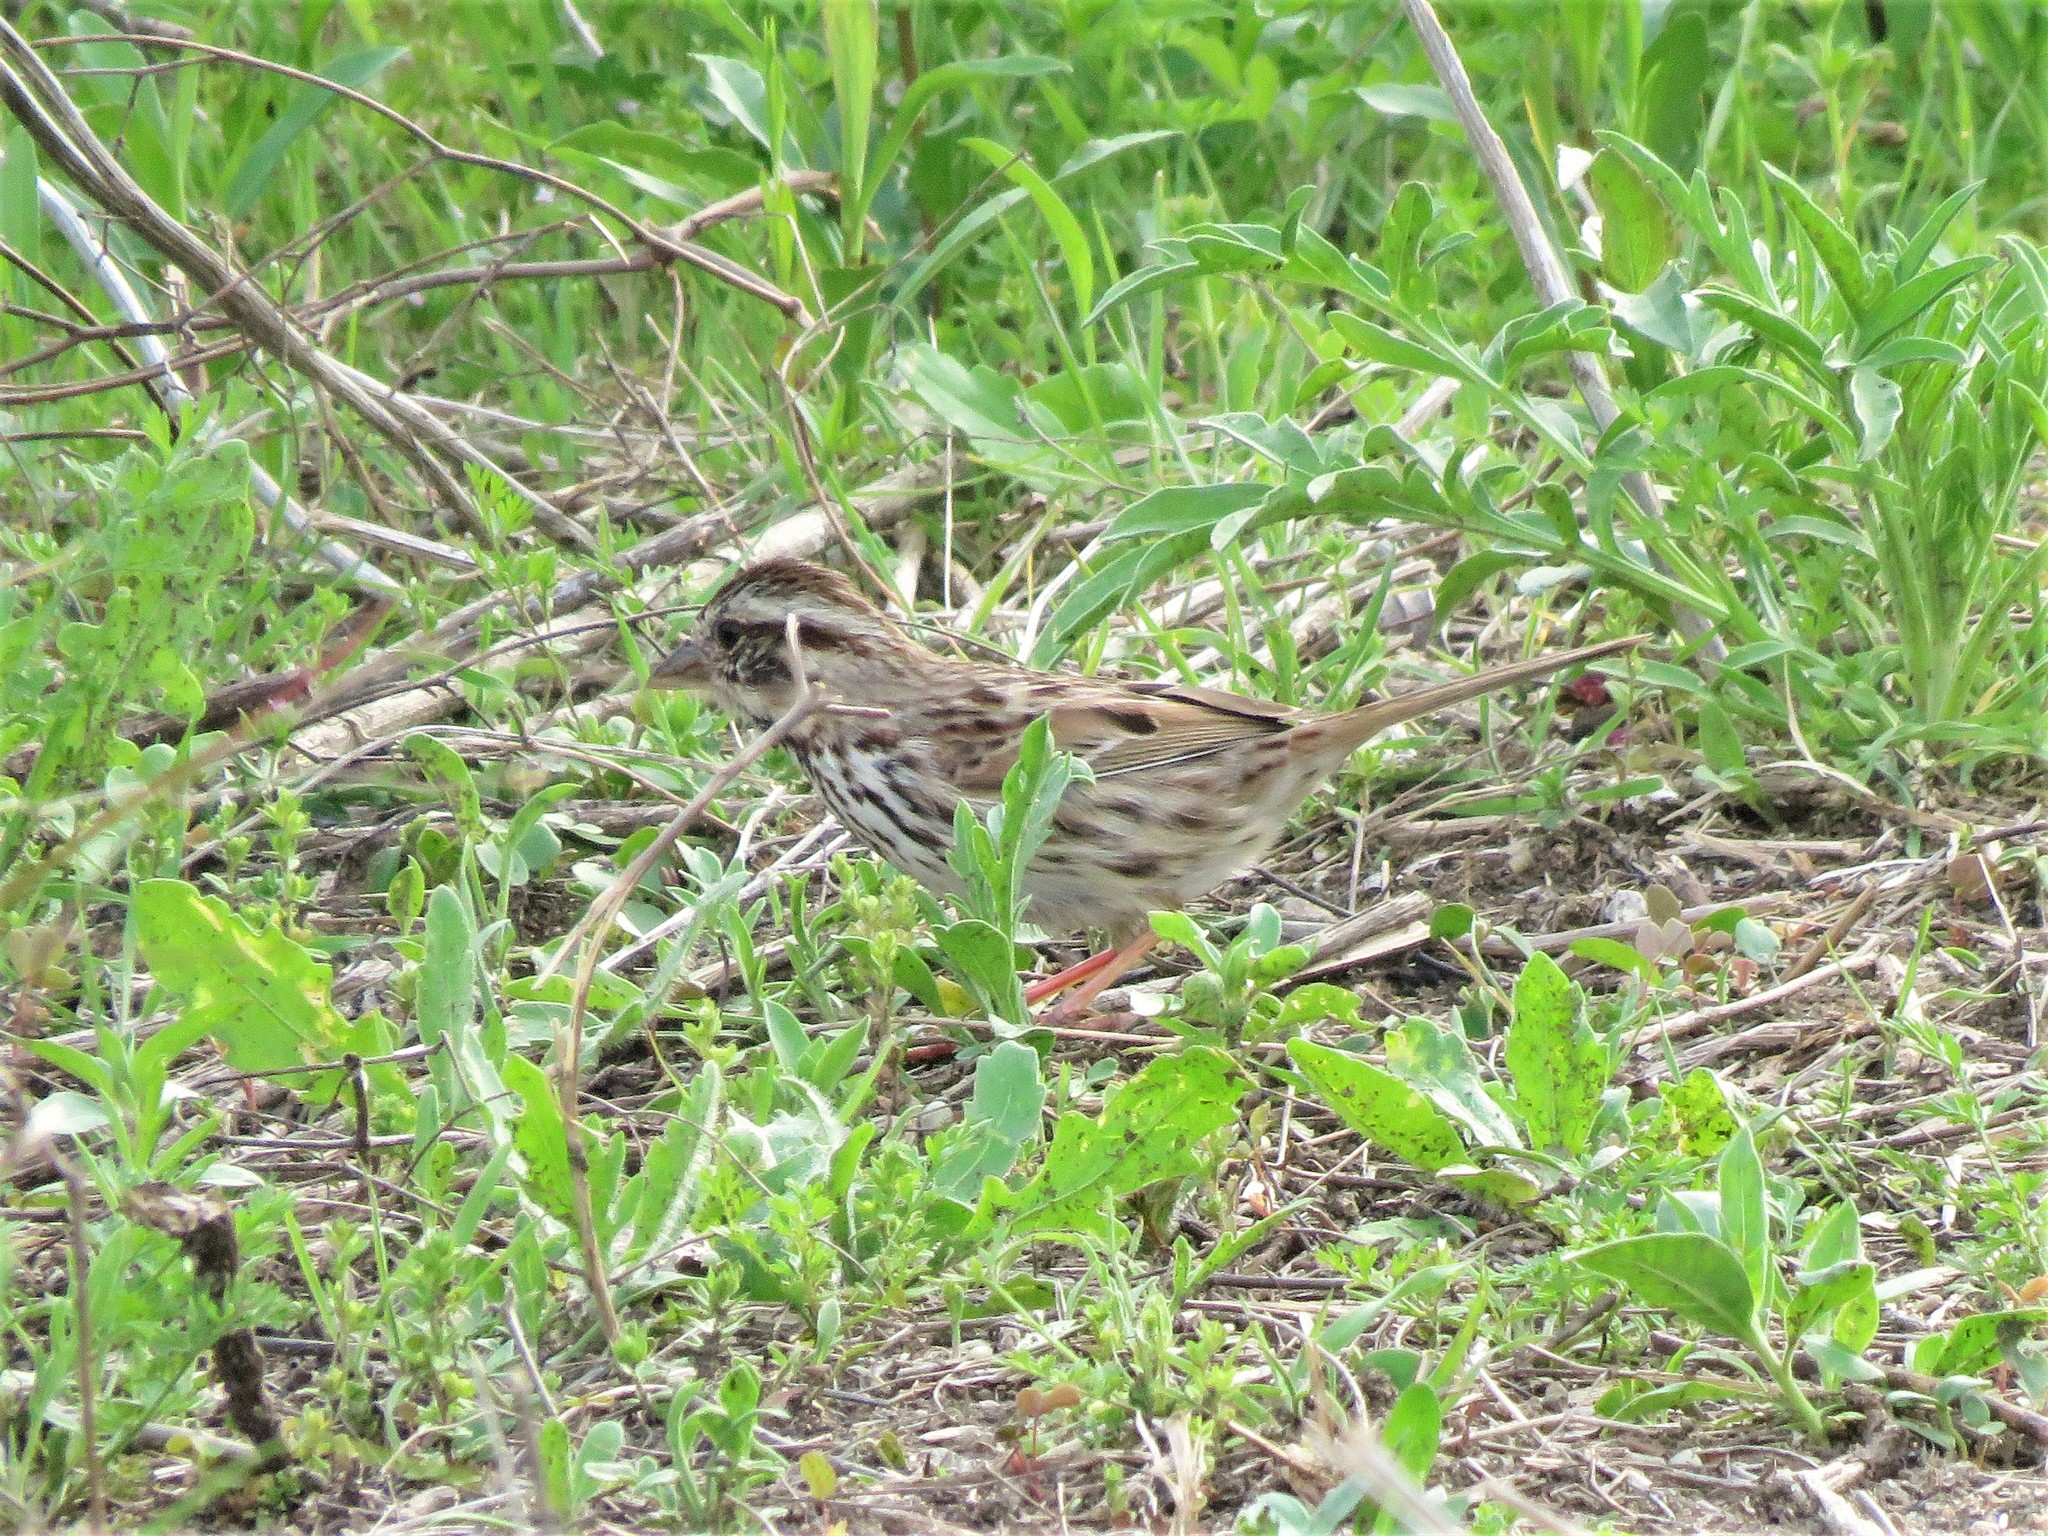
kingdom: Animalia
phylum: Chordata
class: Aves
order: Passeriformes
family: Passerellidae
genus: Melospiza
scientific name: Melospiza melodia
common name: Song sparrow
